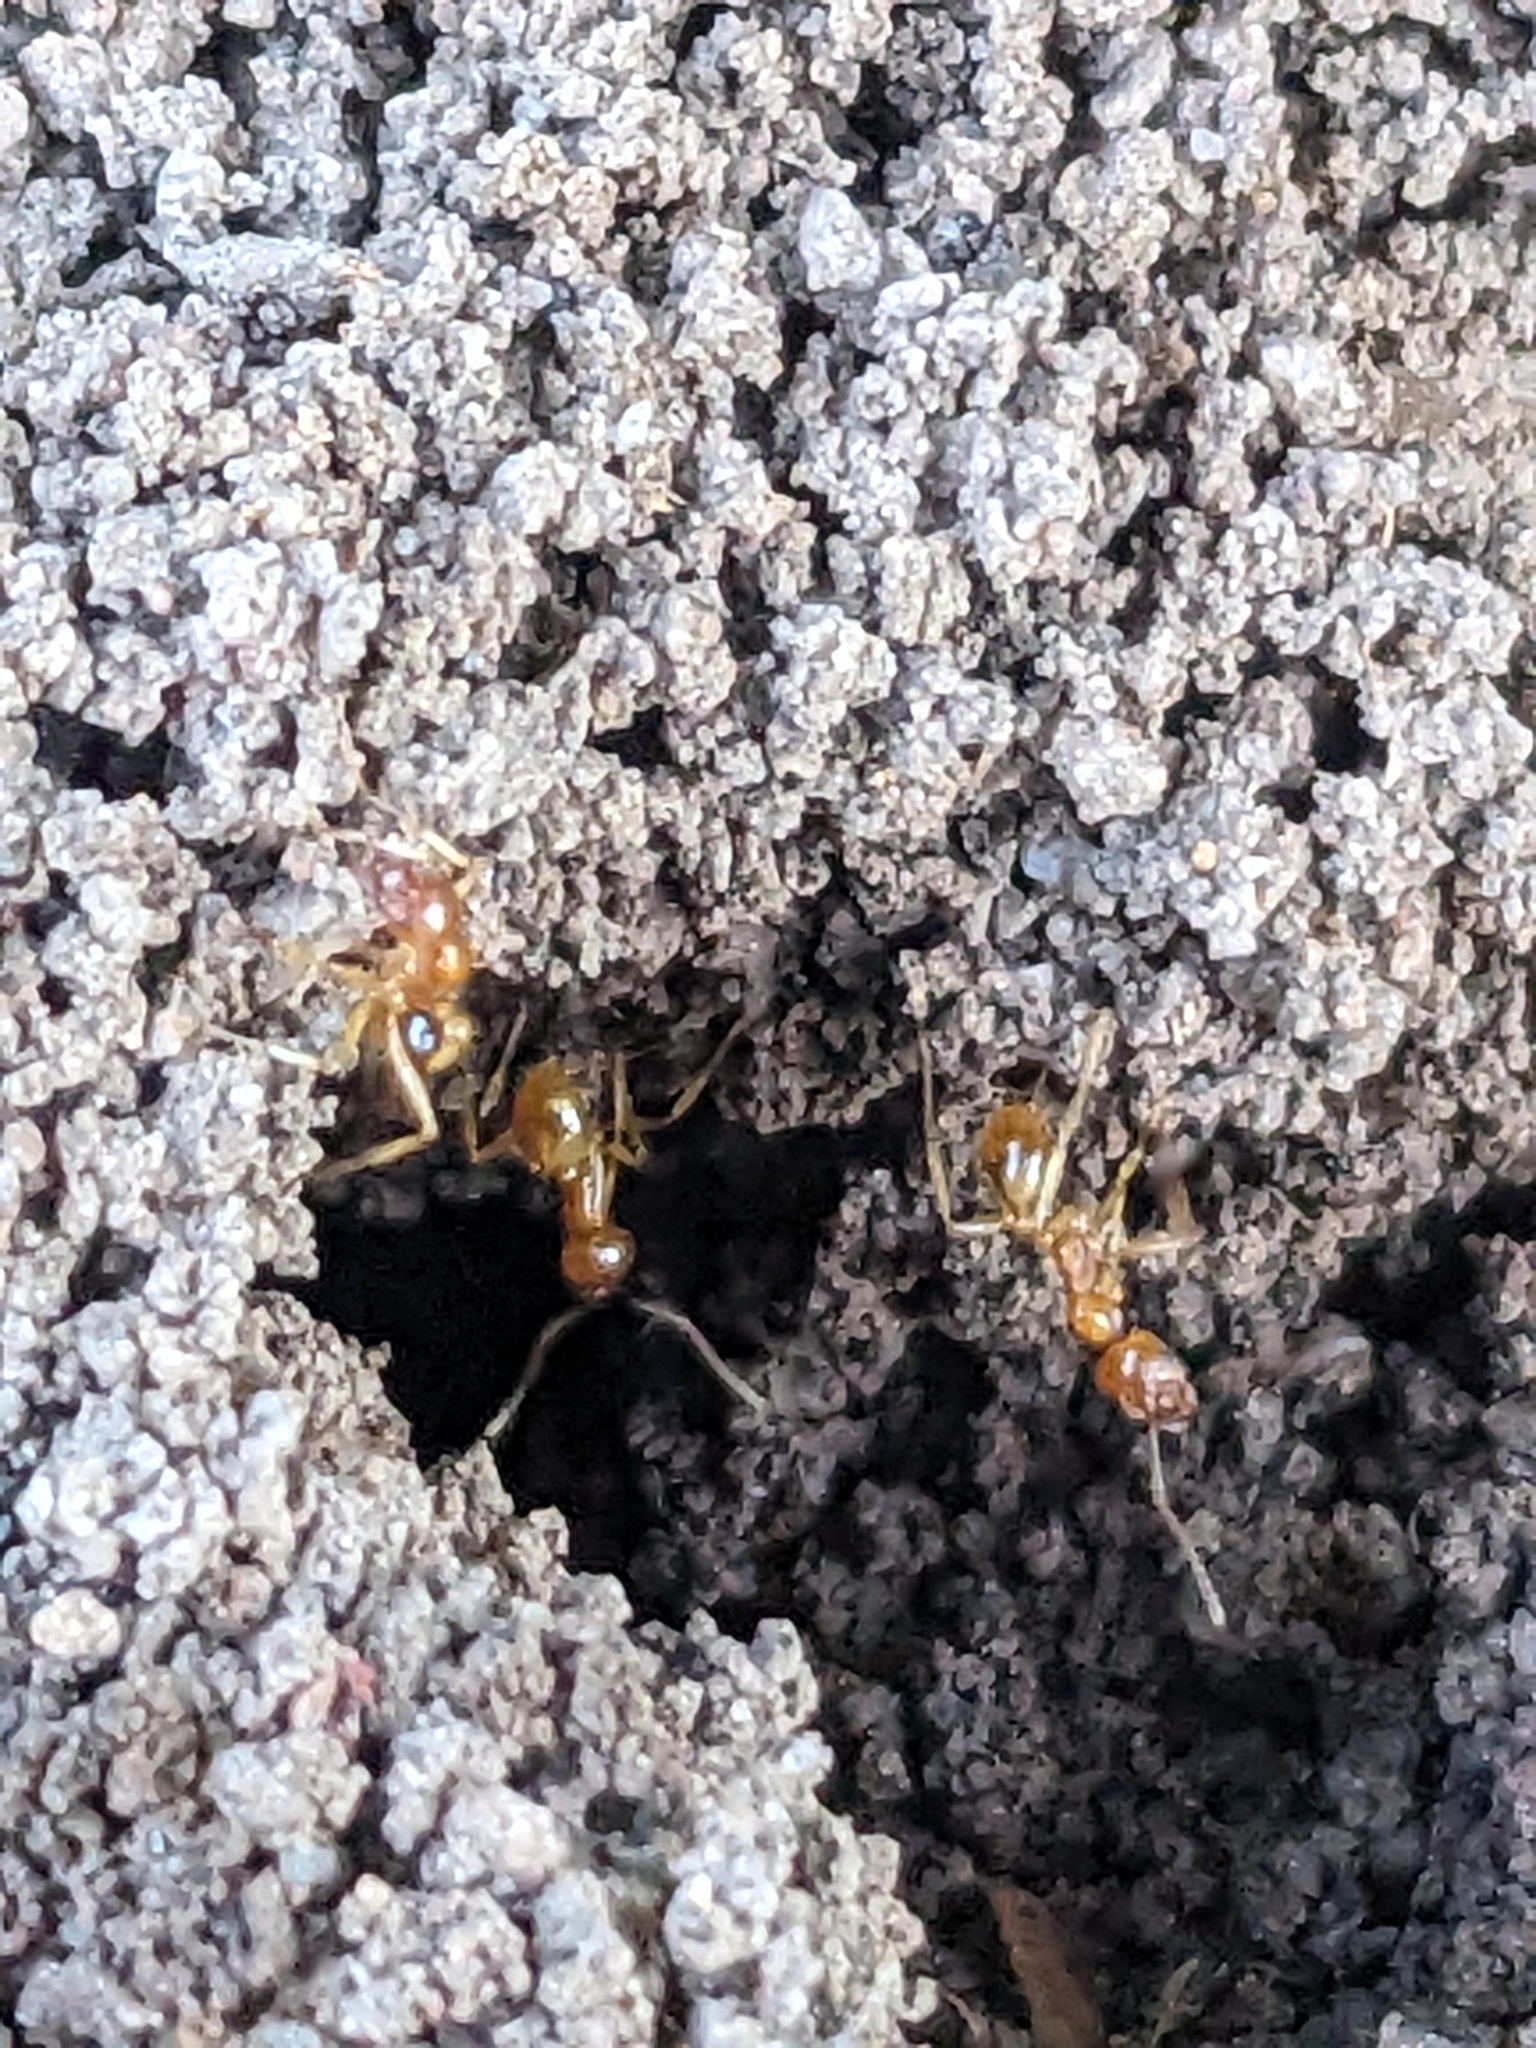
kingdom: Animalia
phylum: Arthropoda
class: Insecta
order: Hymenoptera
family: Formicidae
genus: Aphaenogaster
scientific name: Aphaenogaster pythia
